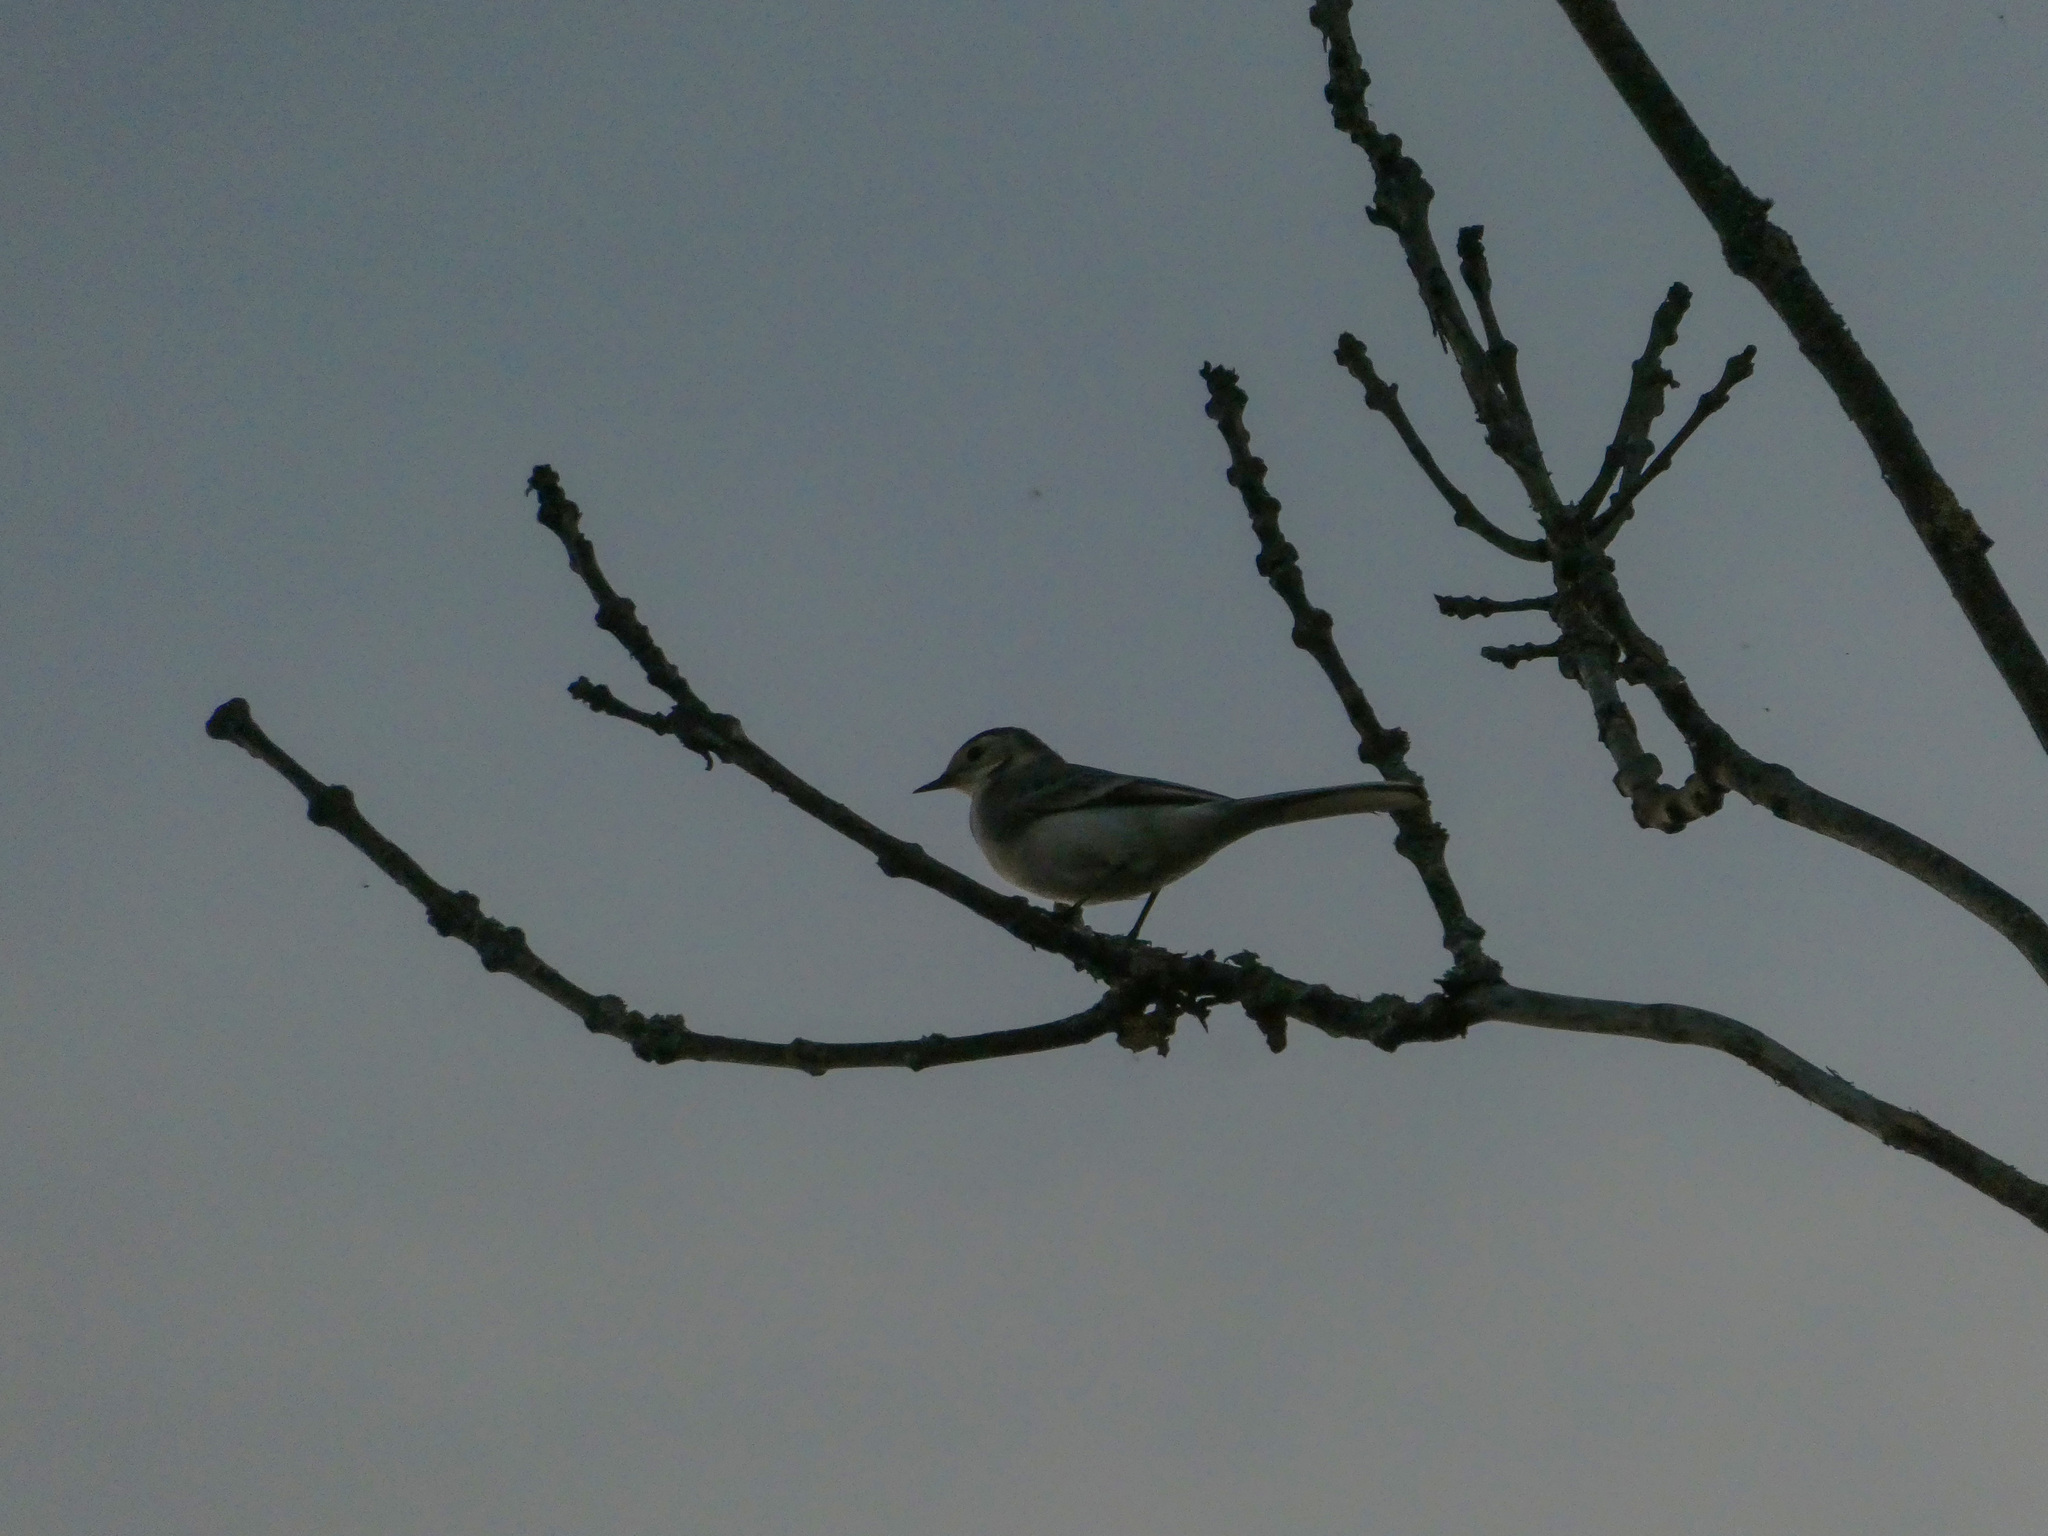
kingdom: Animalia
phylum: Chordata
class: Aves
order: Passeriformes
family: Motacillidae
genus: Motacilla
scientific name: Motacilla alba
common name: White wagtail
